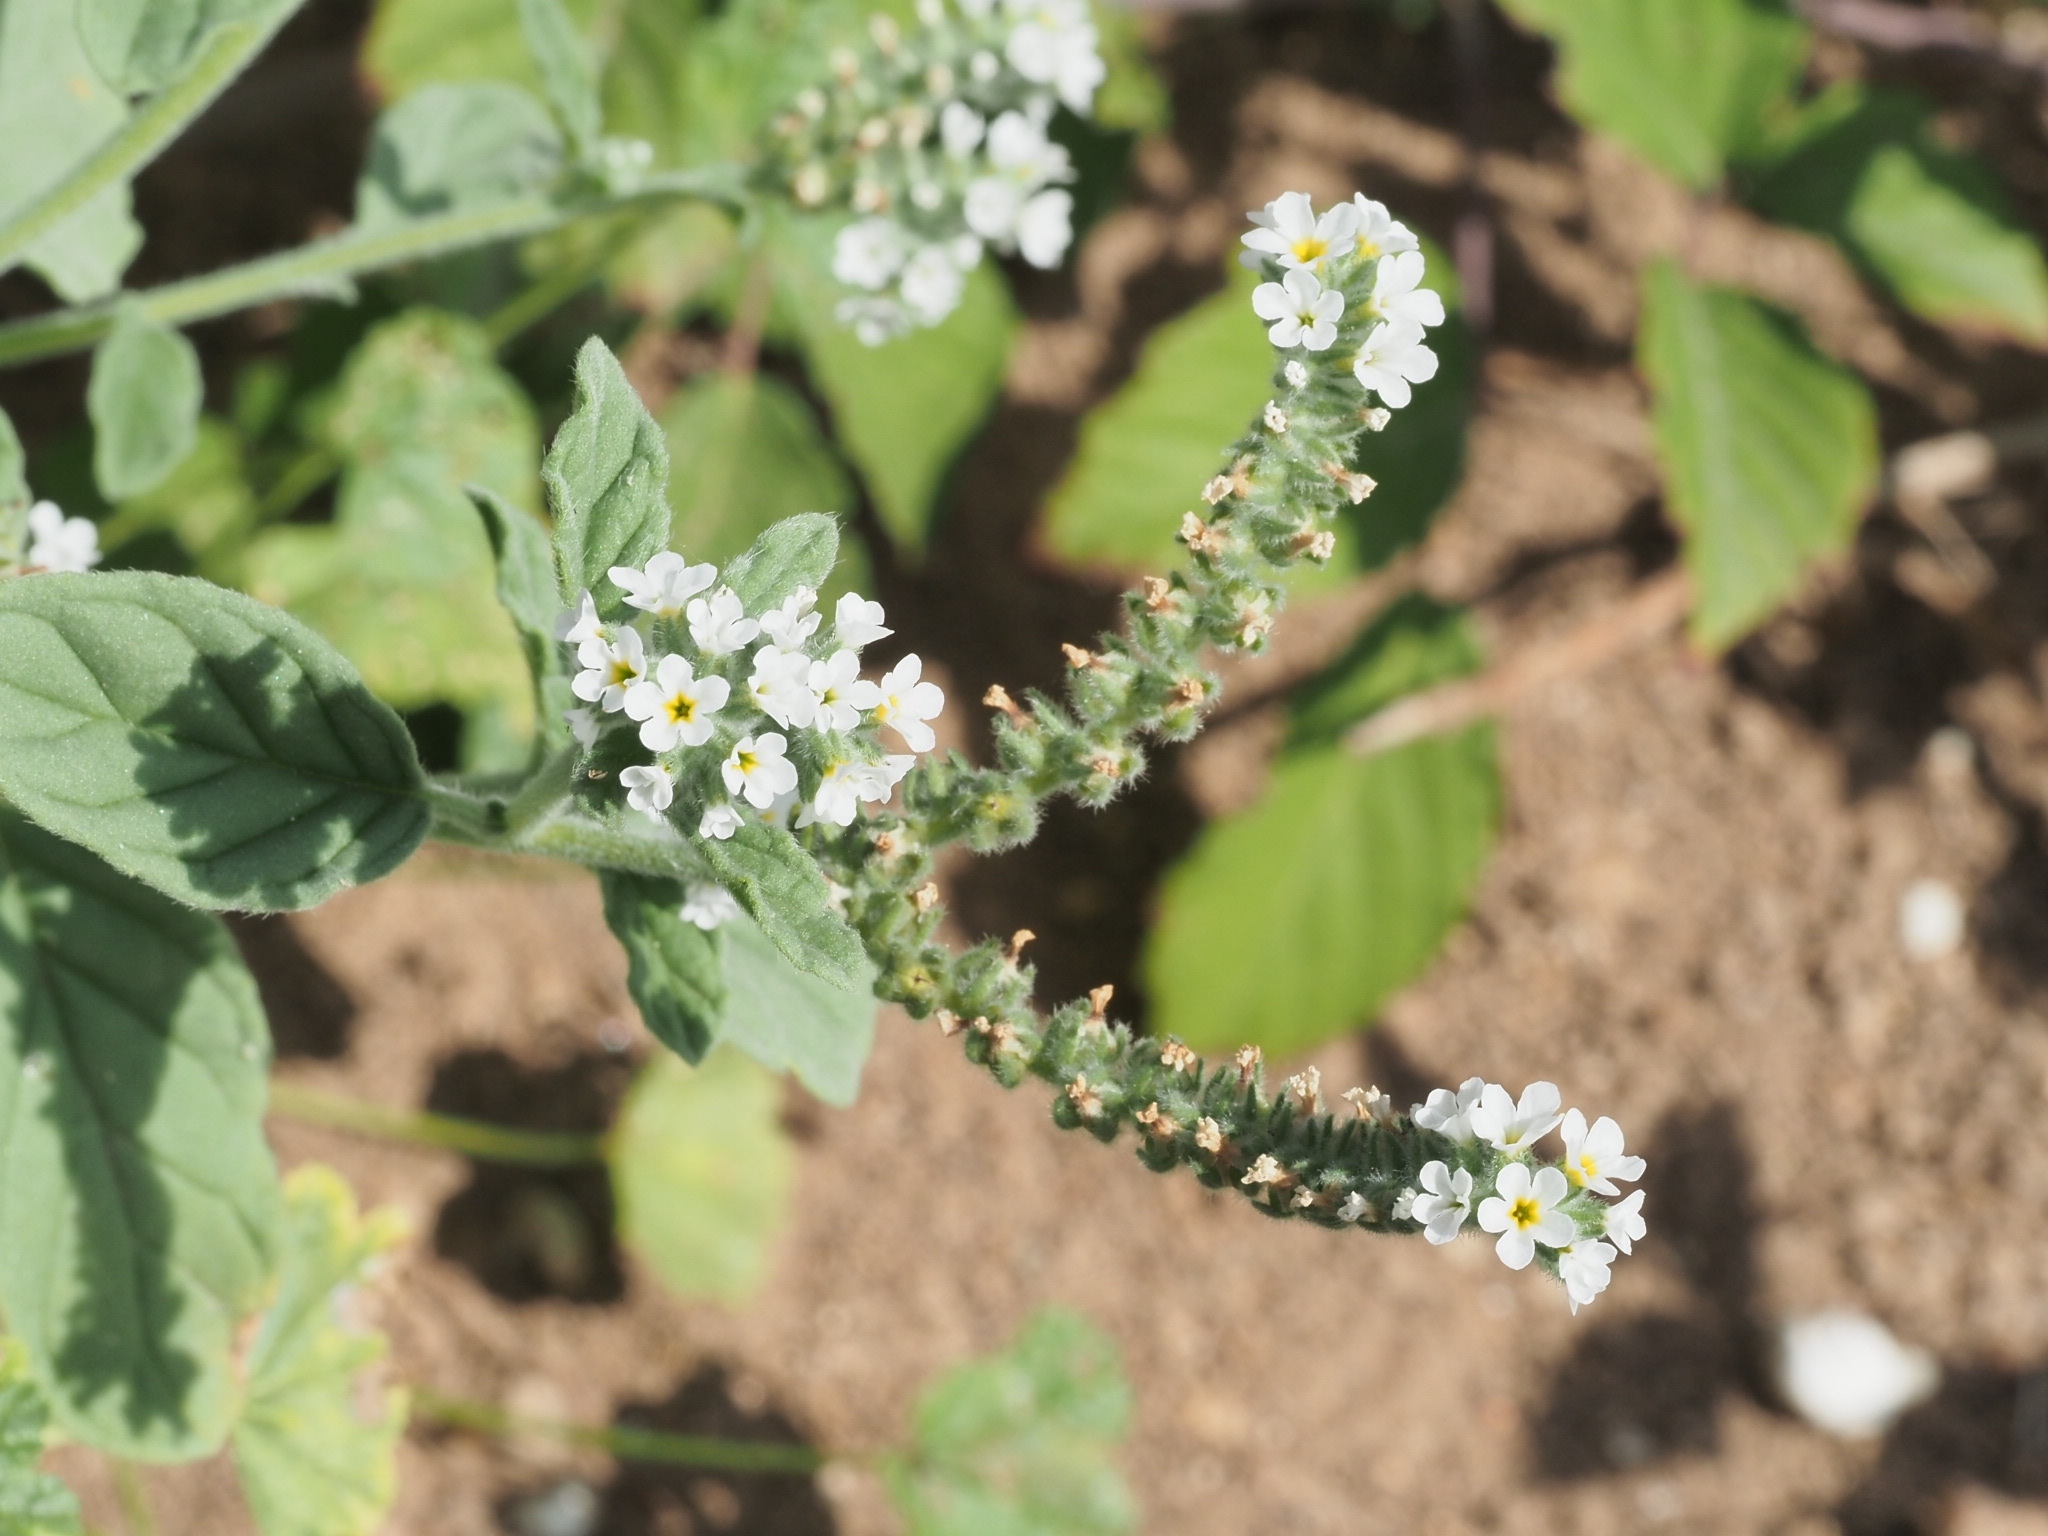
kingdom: Plantae
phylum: Tracheophyta
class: Magnoliopsida
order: Boraginales
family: Heliotropiaceae
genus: Heliotropium
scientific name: Heliotropium europaeum
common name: European heliotrope
